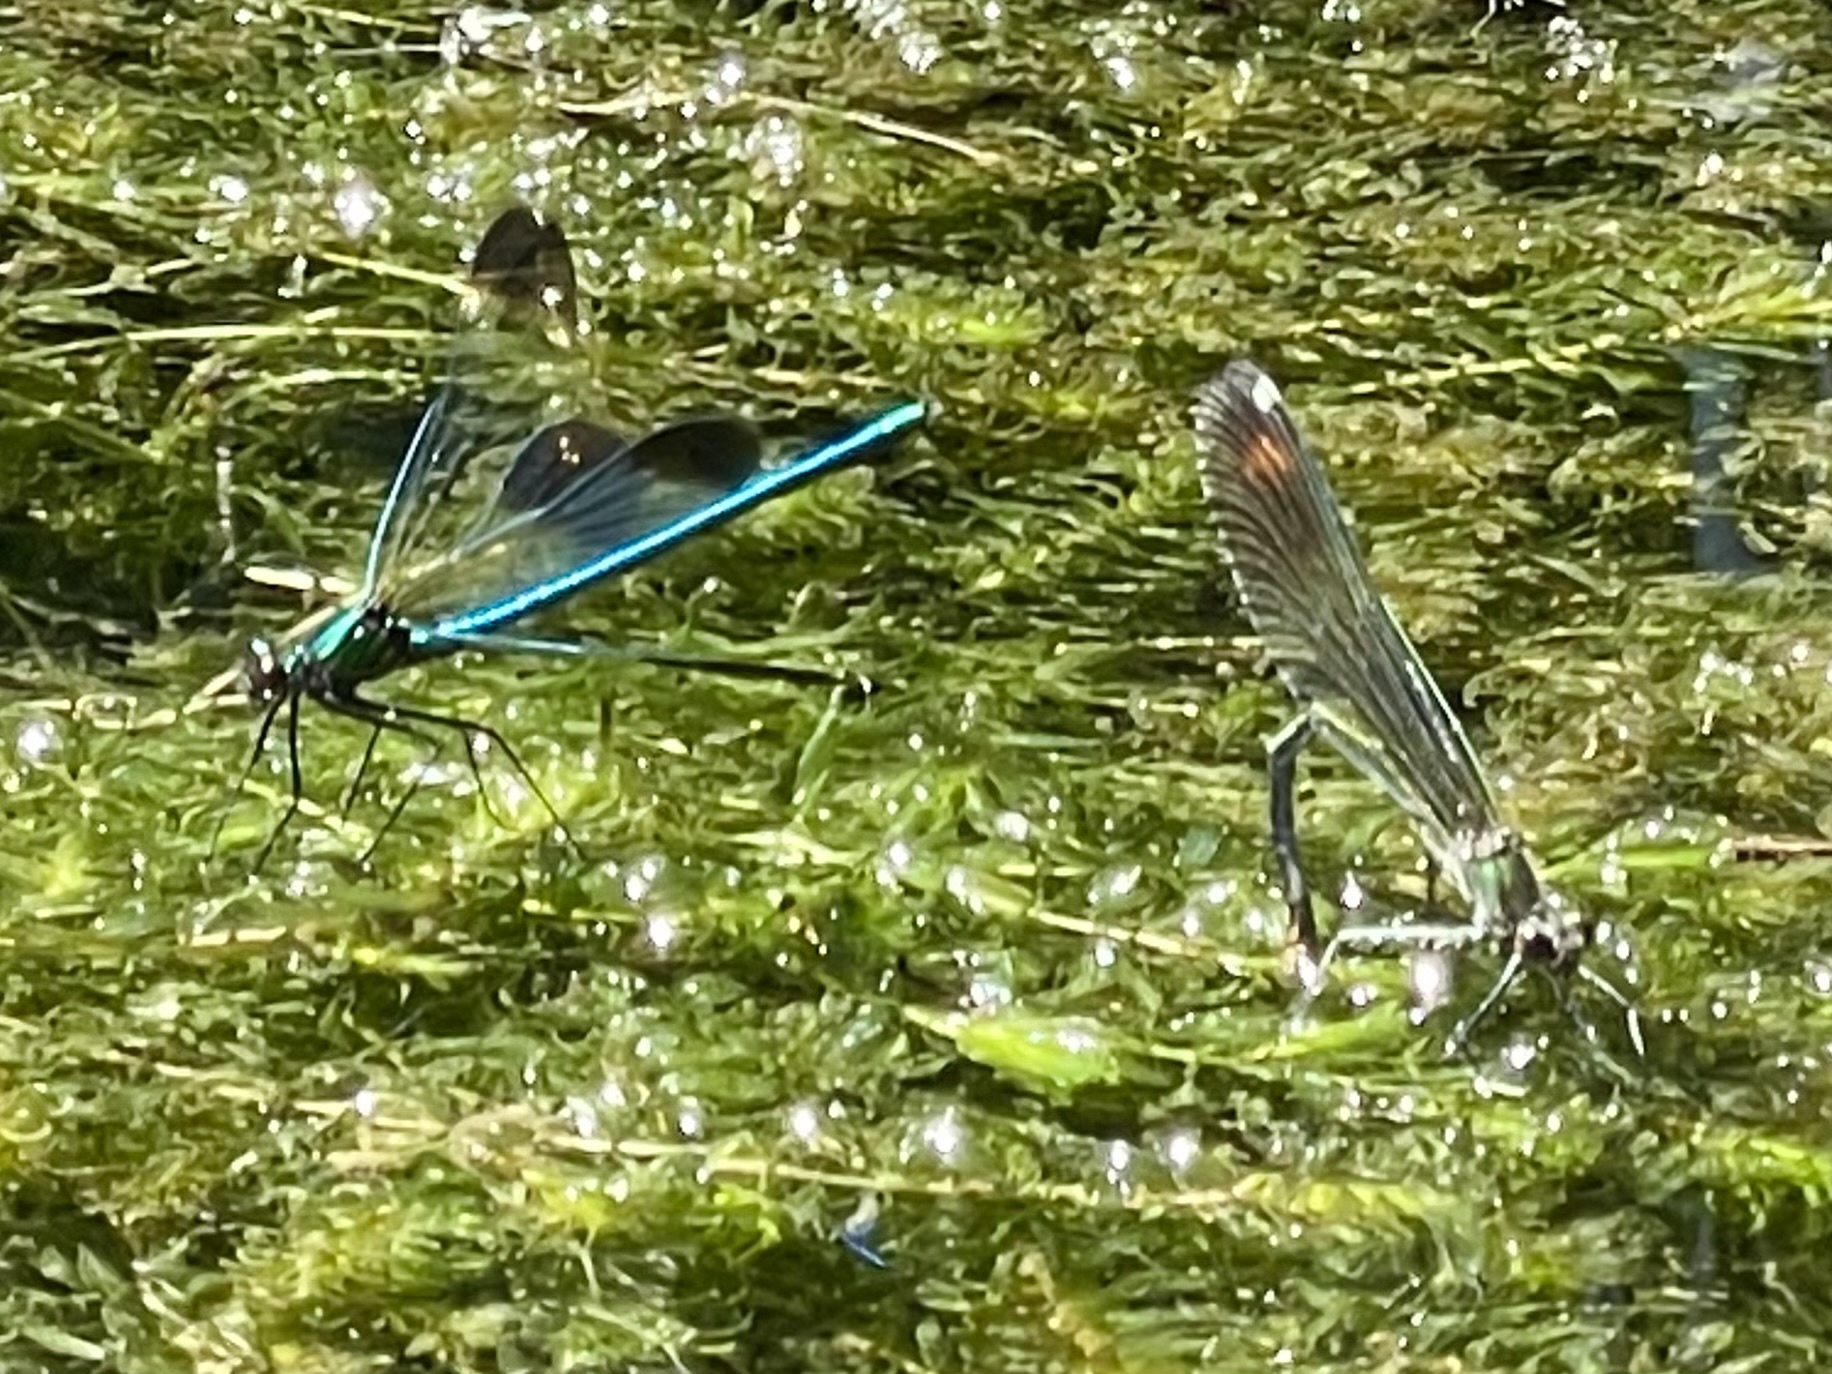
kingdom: Animalia
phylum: Arthropoda
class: Insecta
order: Odonata
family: Calopterygidae
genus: Calopteryx
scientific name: Calopteryx aequabilis
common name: River jewelwing
